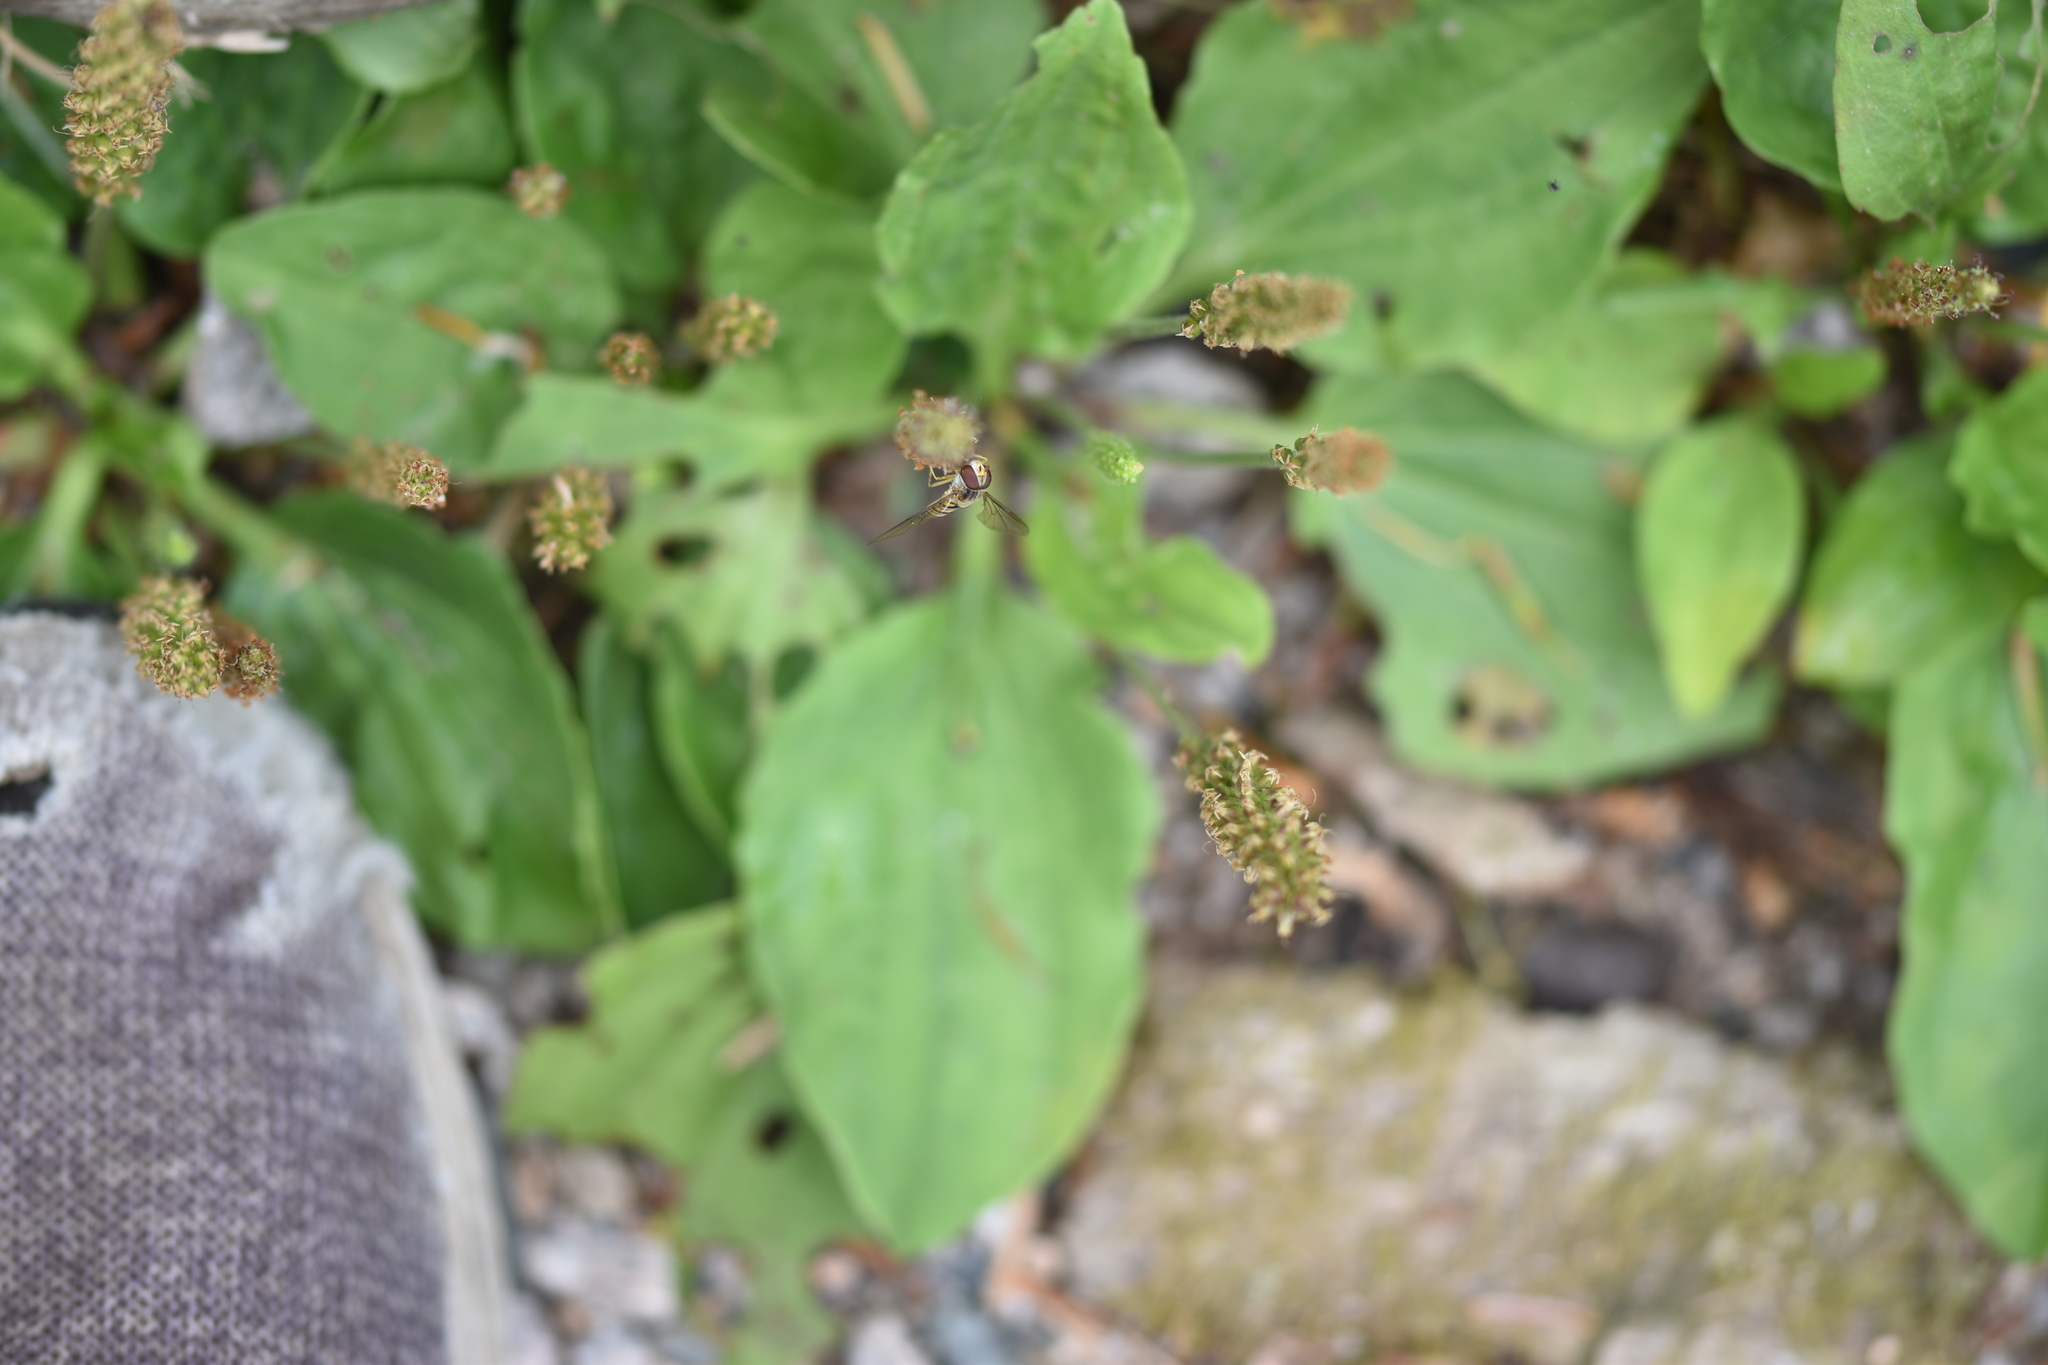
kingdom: Animalia
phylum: Arthropoda
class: Insecta
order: Diptera
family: Syrphidae
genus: Episyrphus
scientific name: Episyrphus balteatus
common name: Marmalade hoverfly
